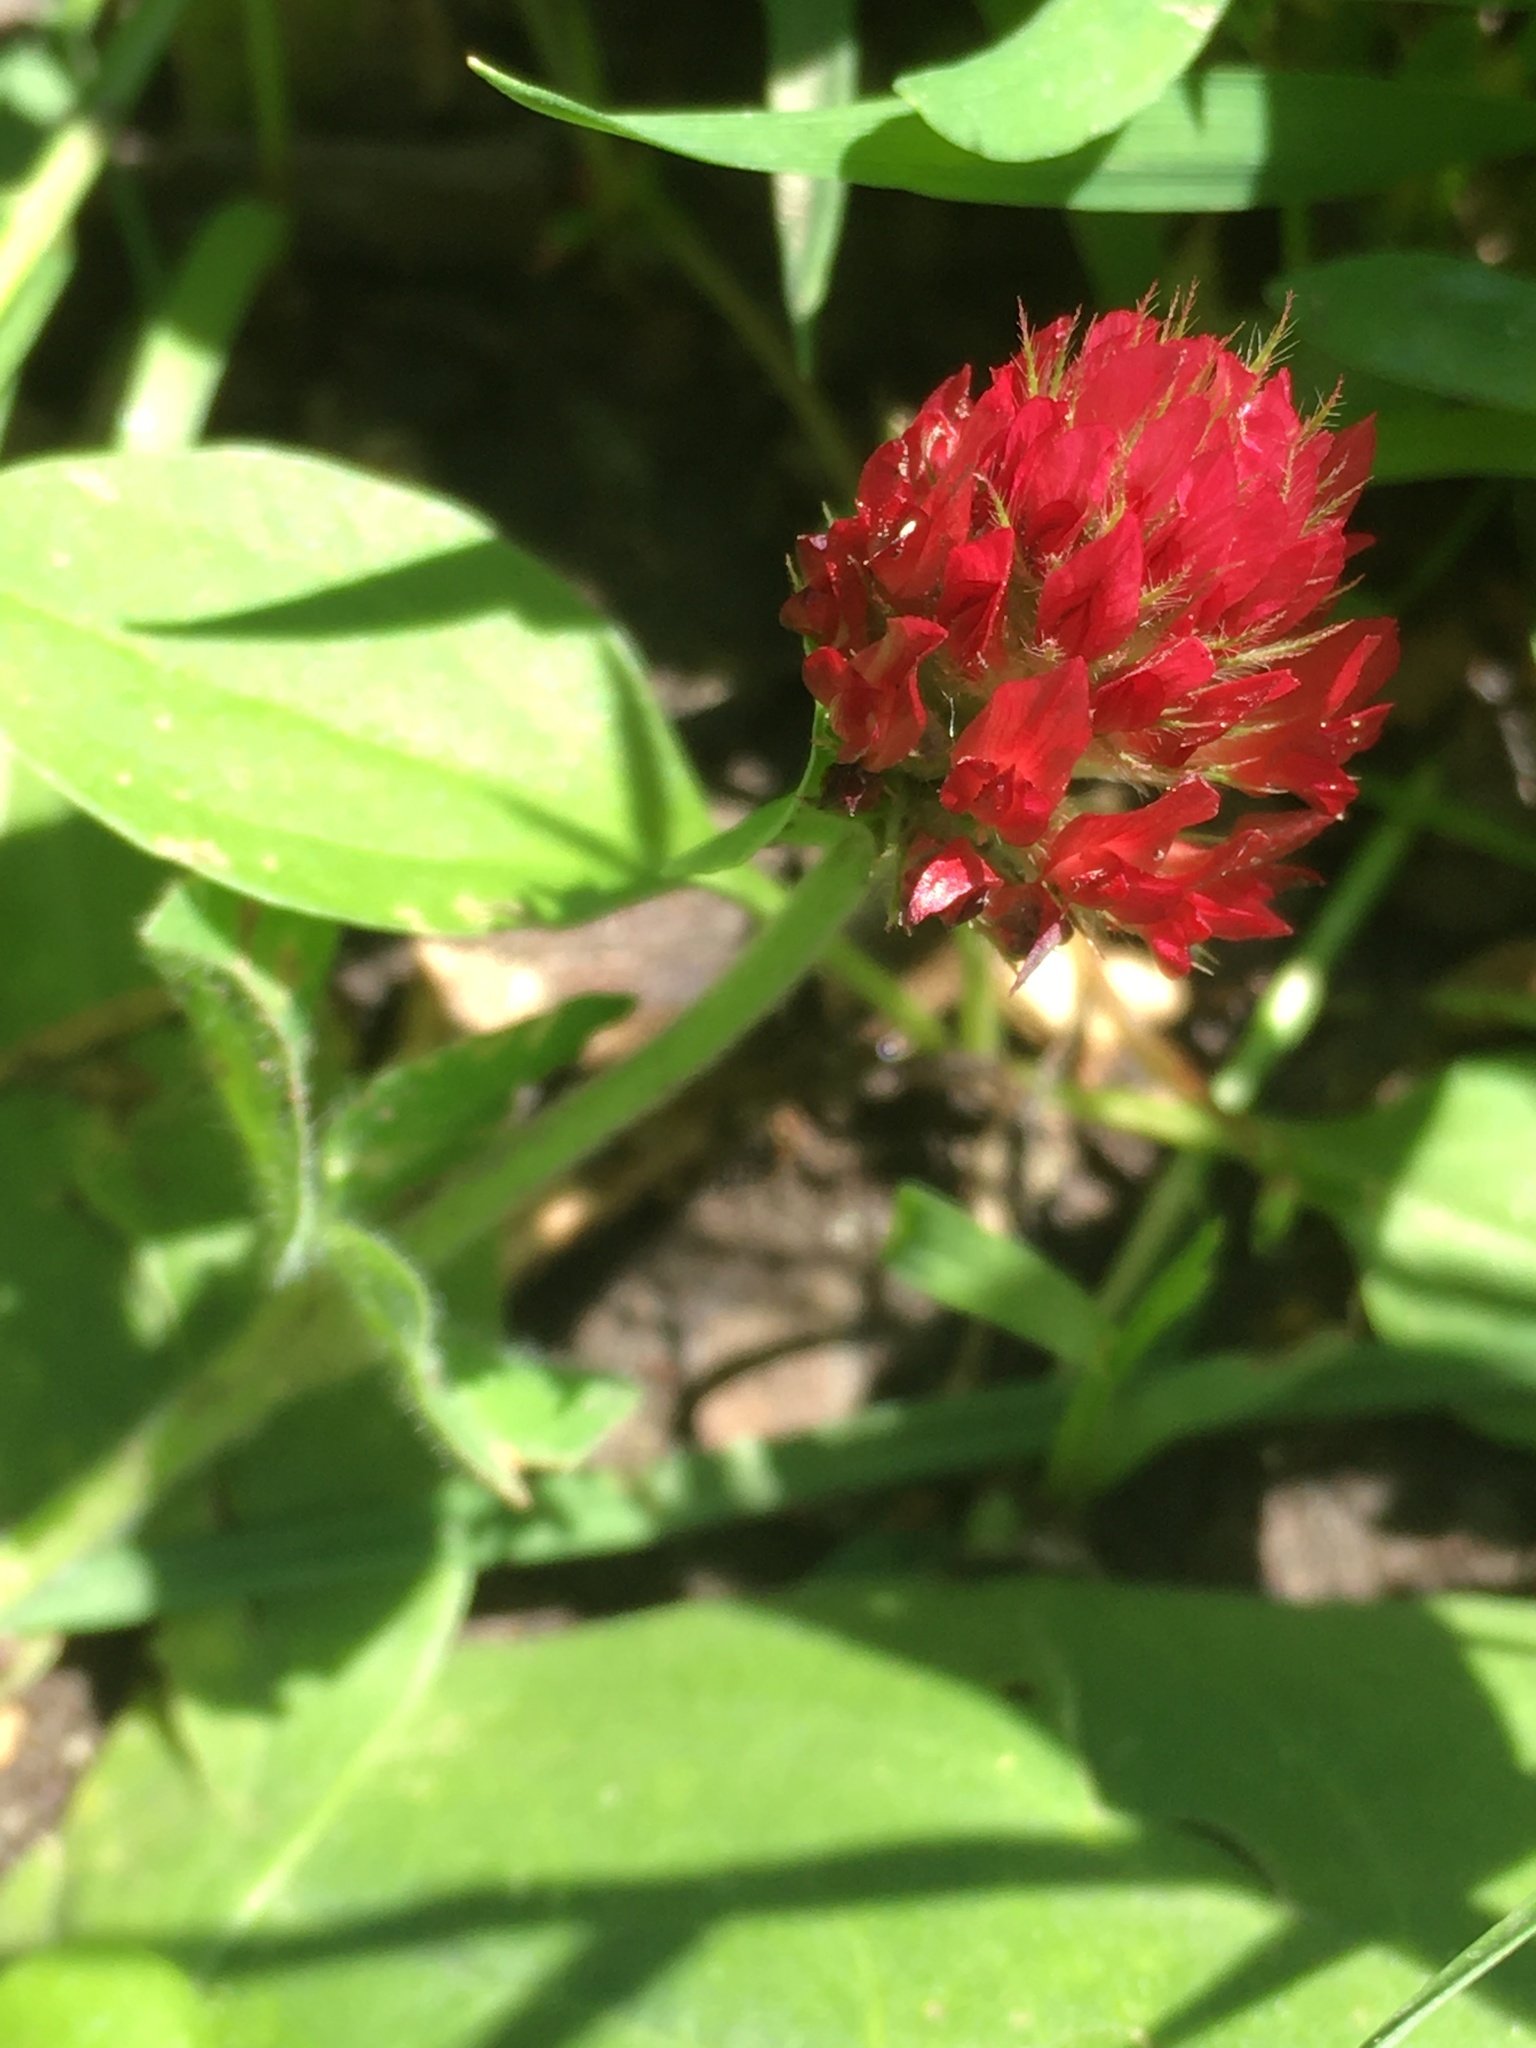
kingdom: Plantae
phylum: Tracheophyta
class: Magnoliopsida
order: Fabales
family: Fabaceae
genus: Trifolium
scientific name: Trifolium incarnatum
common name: Crimson clover
